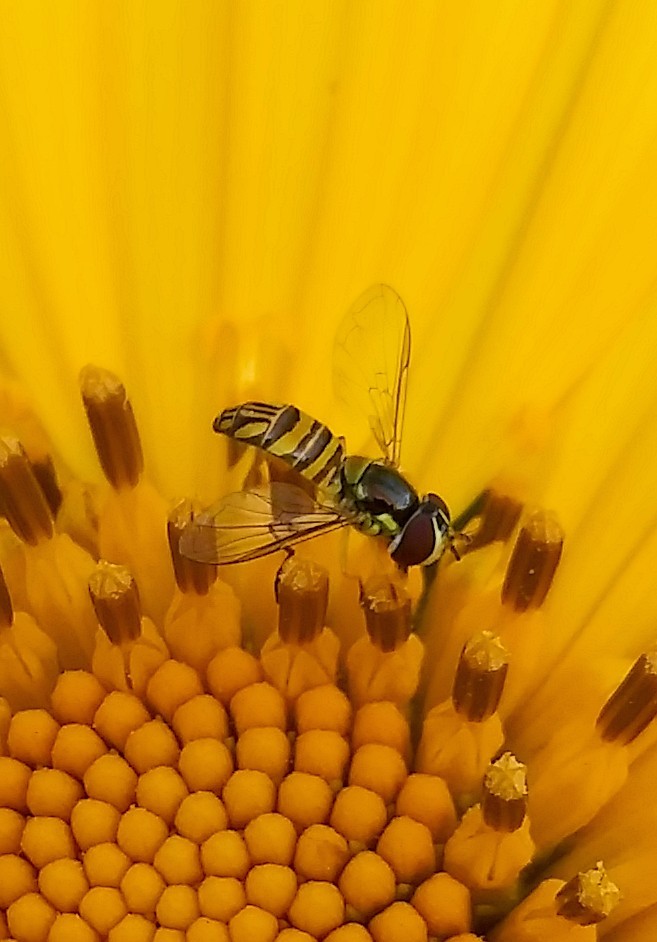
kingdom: Animalia
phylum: Arthropoda
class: Insecta
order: Diptera
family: Syrphidae
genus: Allograpta
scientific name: Allograpta obliqua
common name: Common oblique syrphid
